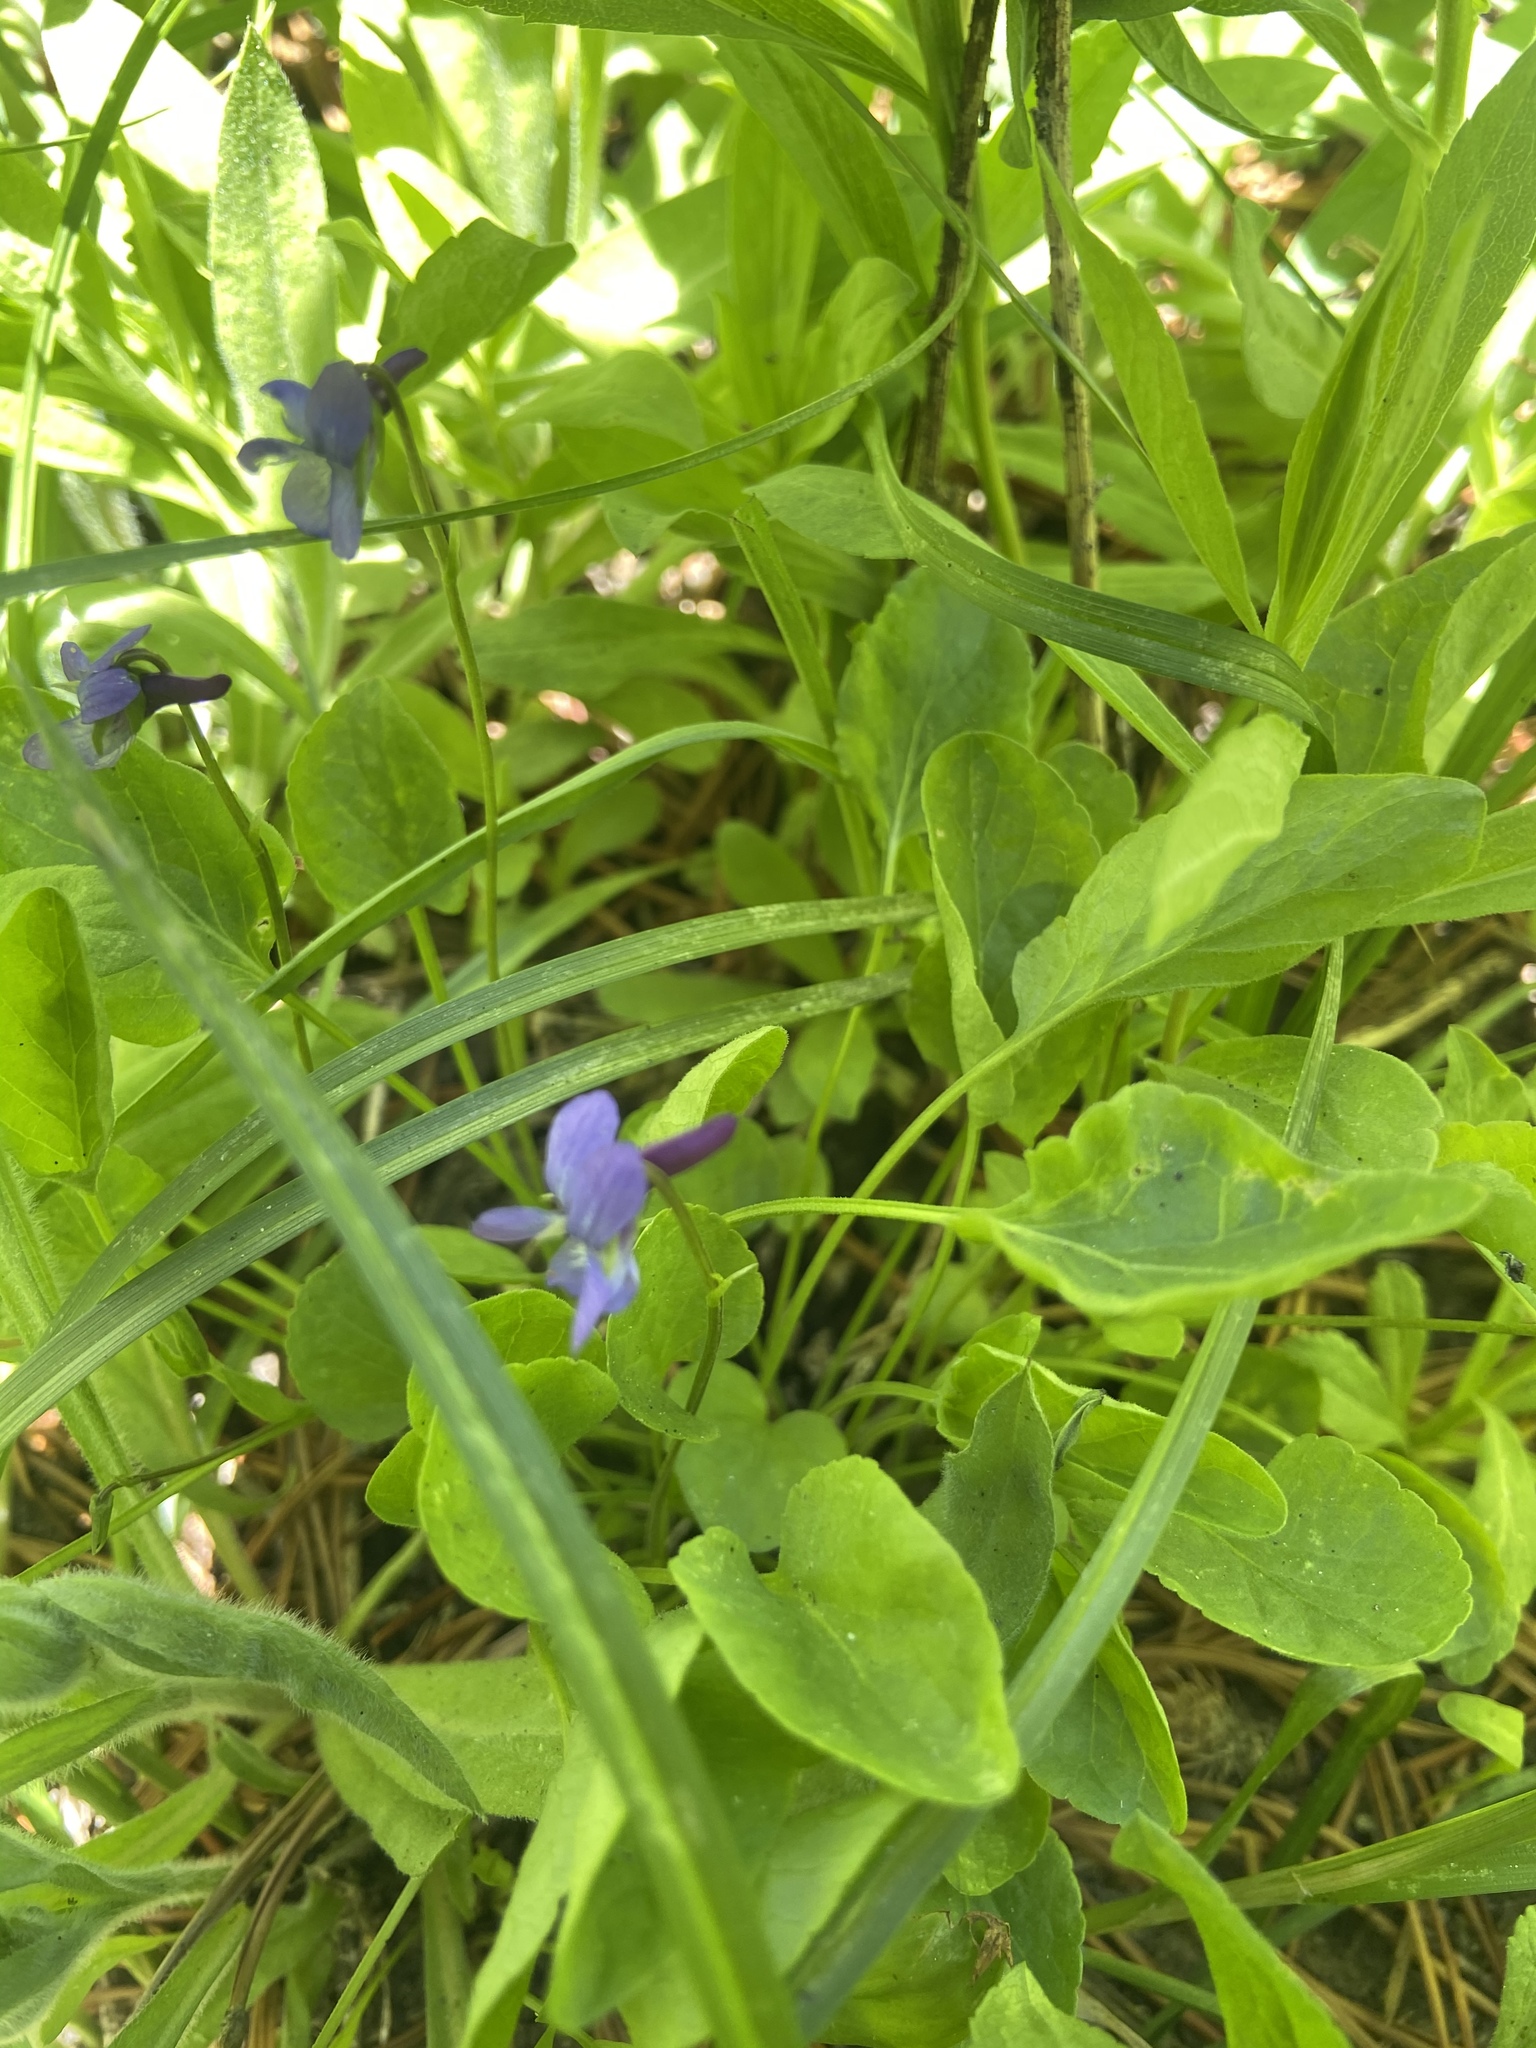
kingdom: Plantae
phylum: Tracheophyta
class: Magnoliopsida
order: Malpighiales
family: Violaceae
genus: Viola
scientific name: Viola adunca
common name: Sand violet
